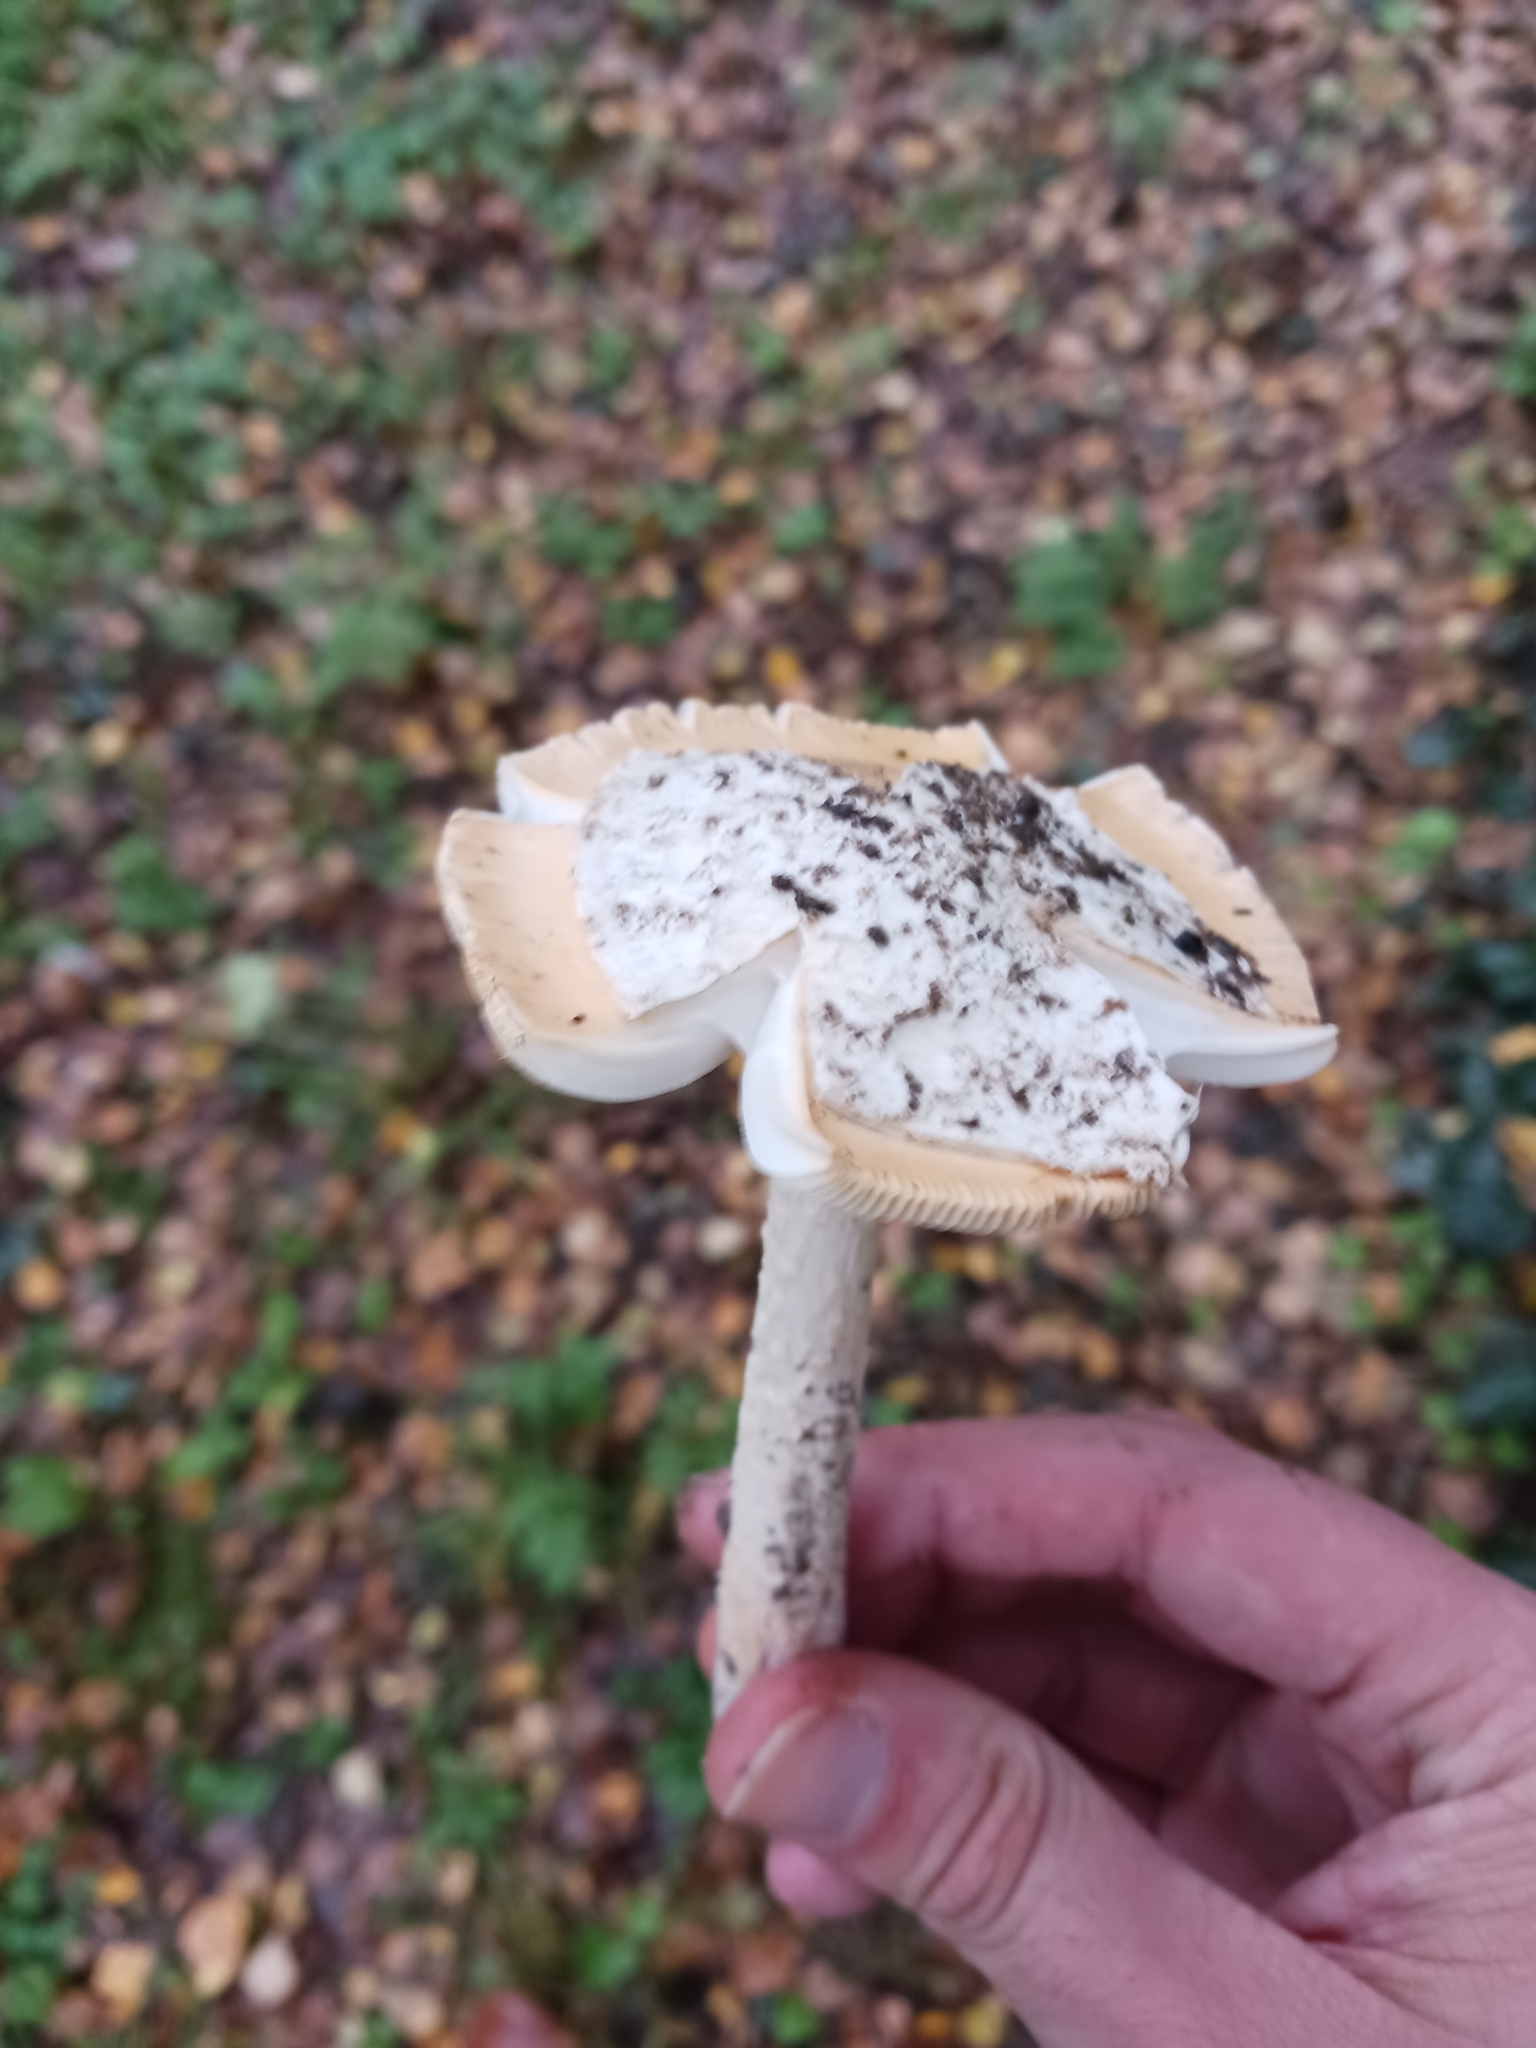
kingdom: Fungi
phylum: Basidiomycota
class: Agaricomycetes
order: Agaricales
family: Amanitaceae
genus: Amanita
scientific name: Amanita contui
